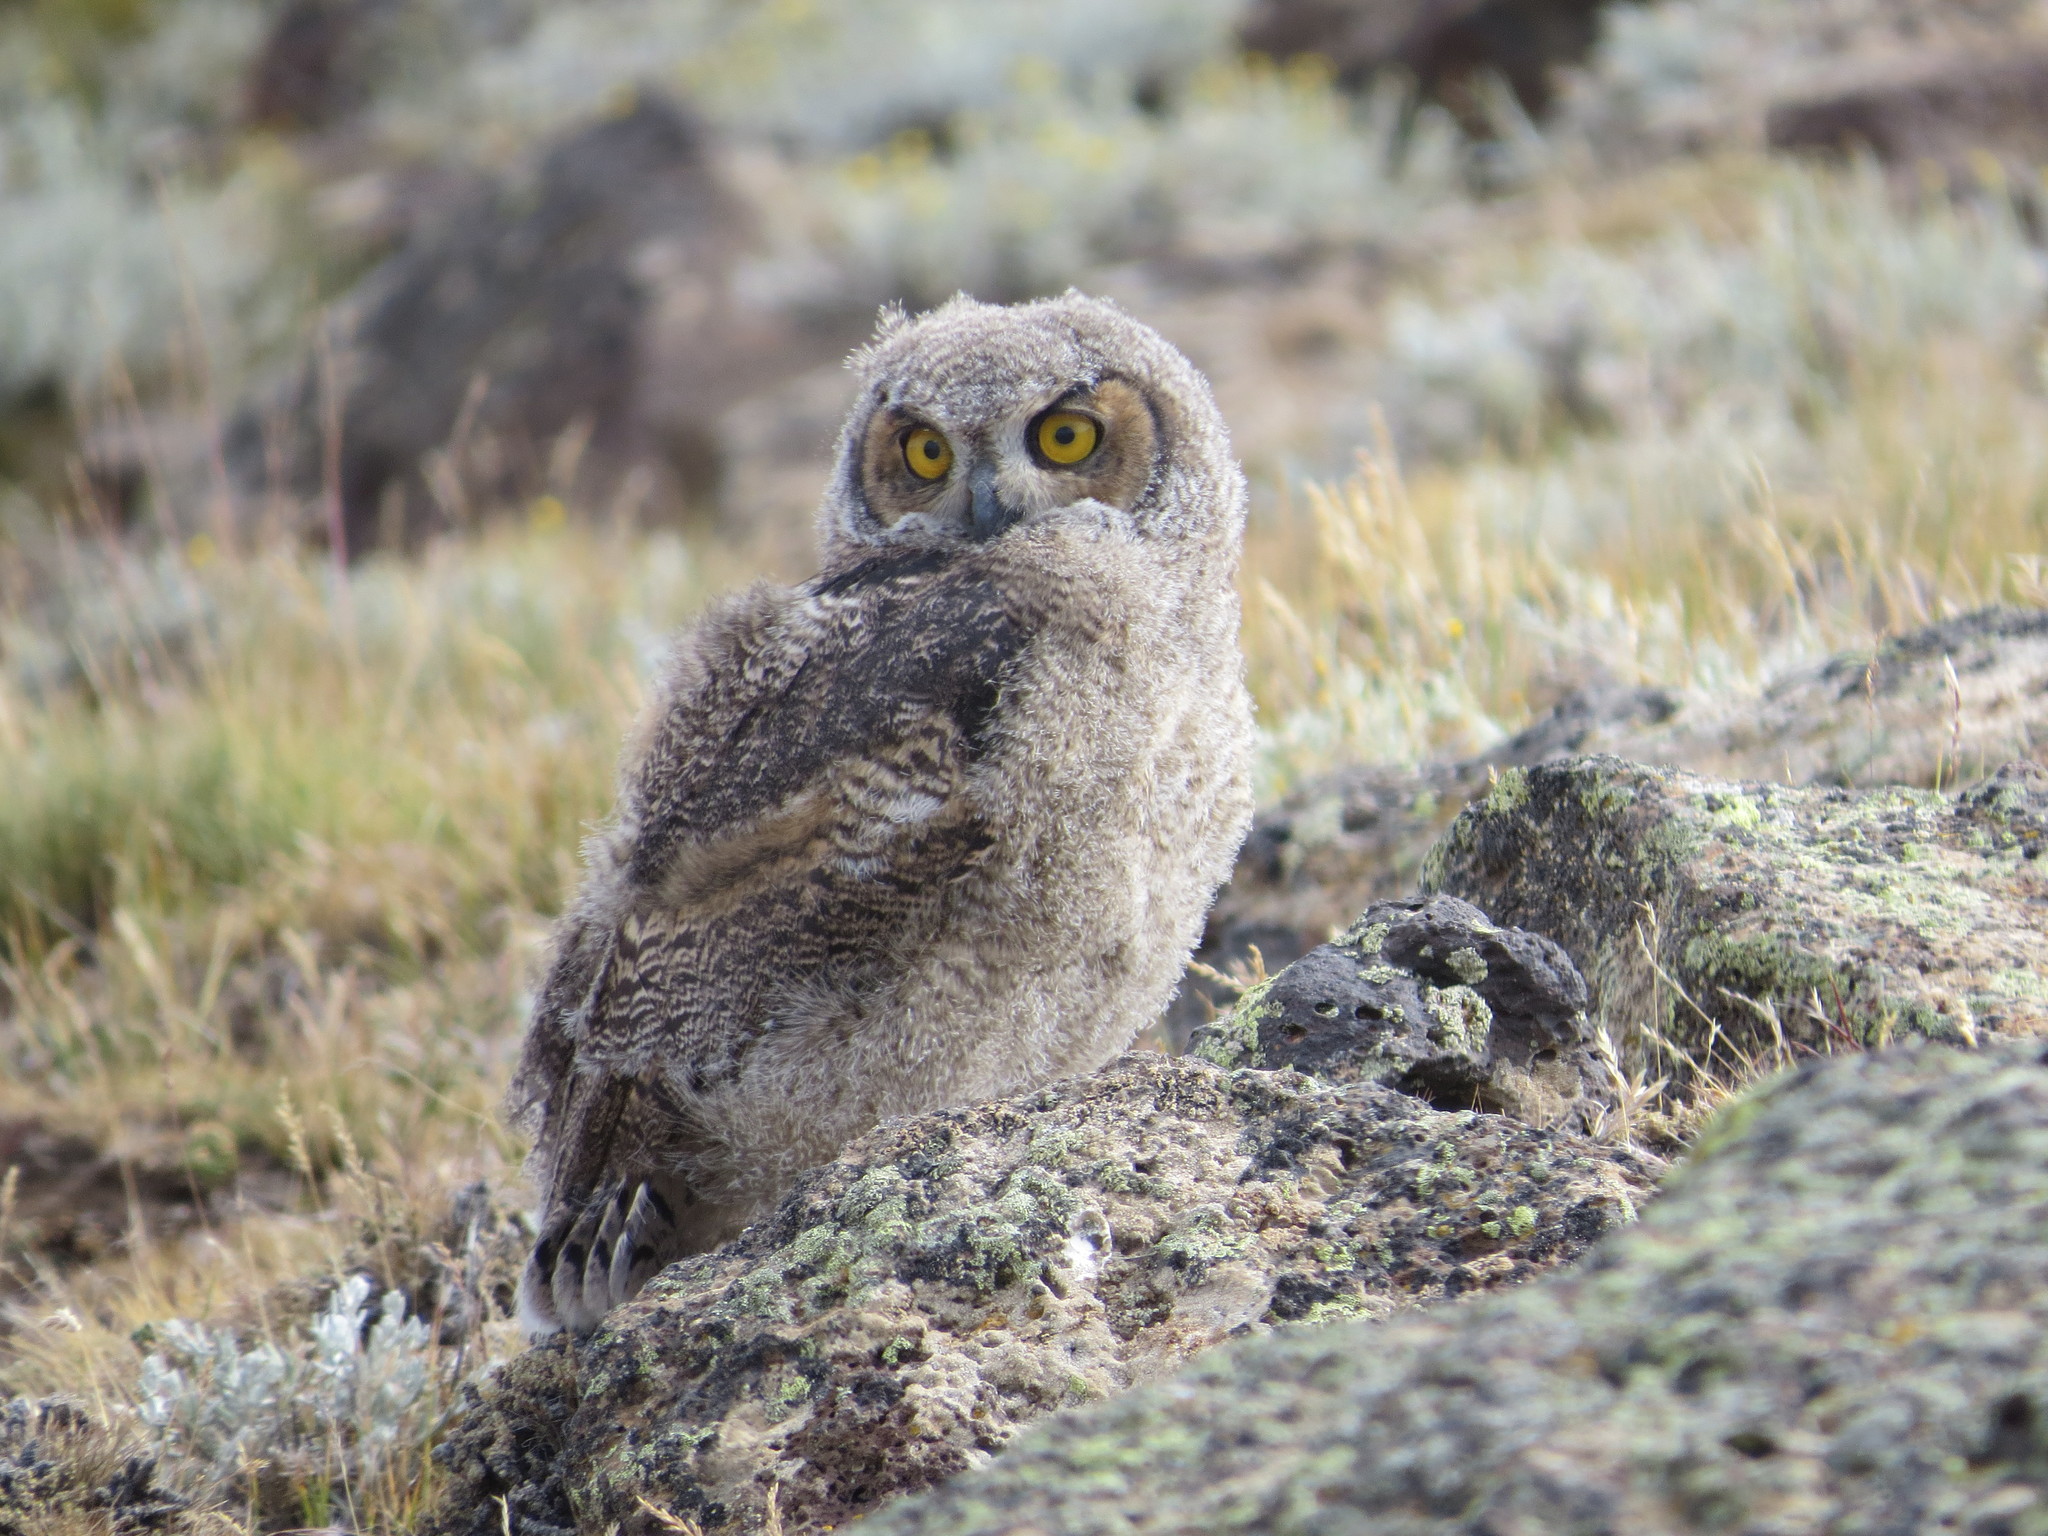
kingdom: Animalia
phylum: Chordata
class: Aves
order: Strigiformes
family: Strigidae
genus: Bubo
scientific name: Bubo magellanicus
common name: Lesser horned owl
